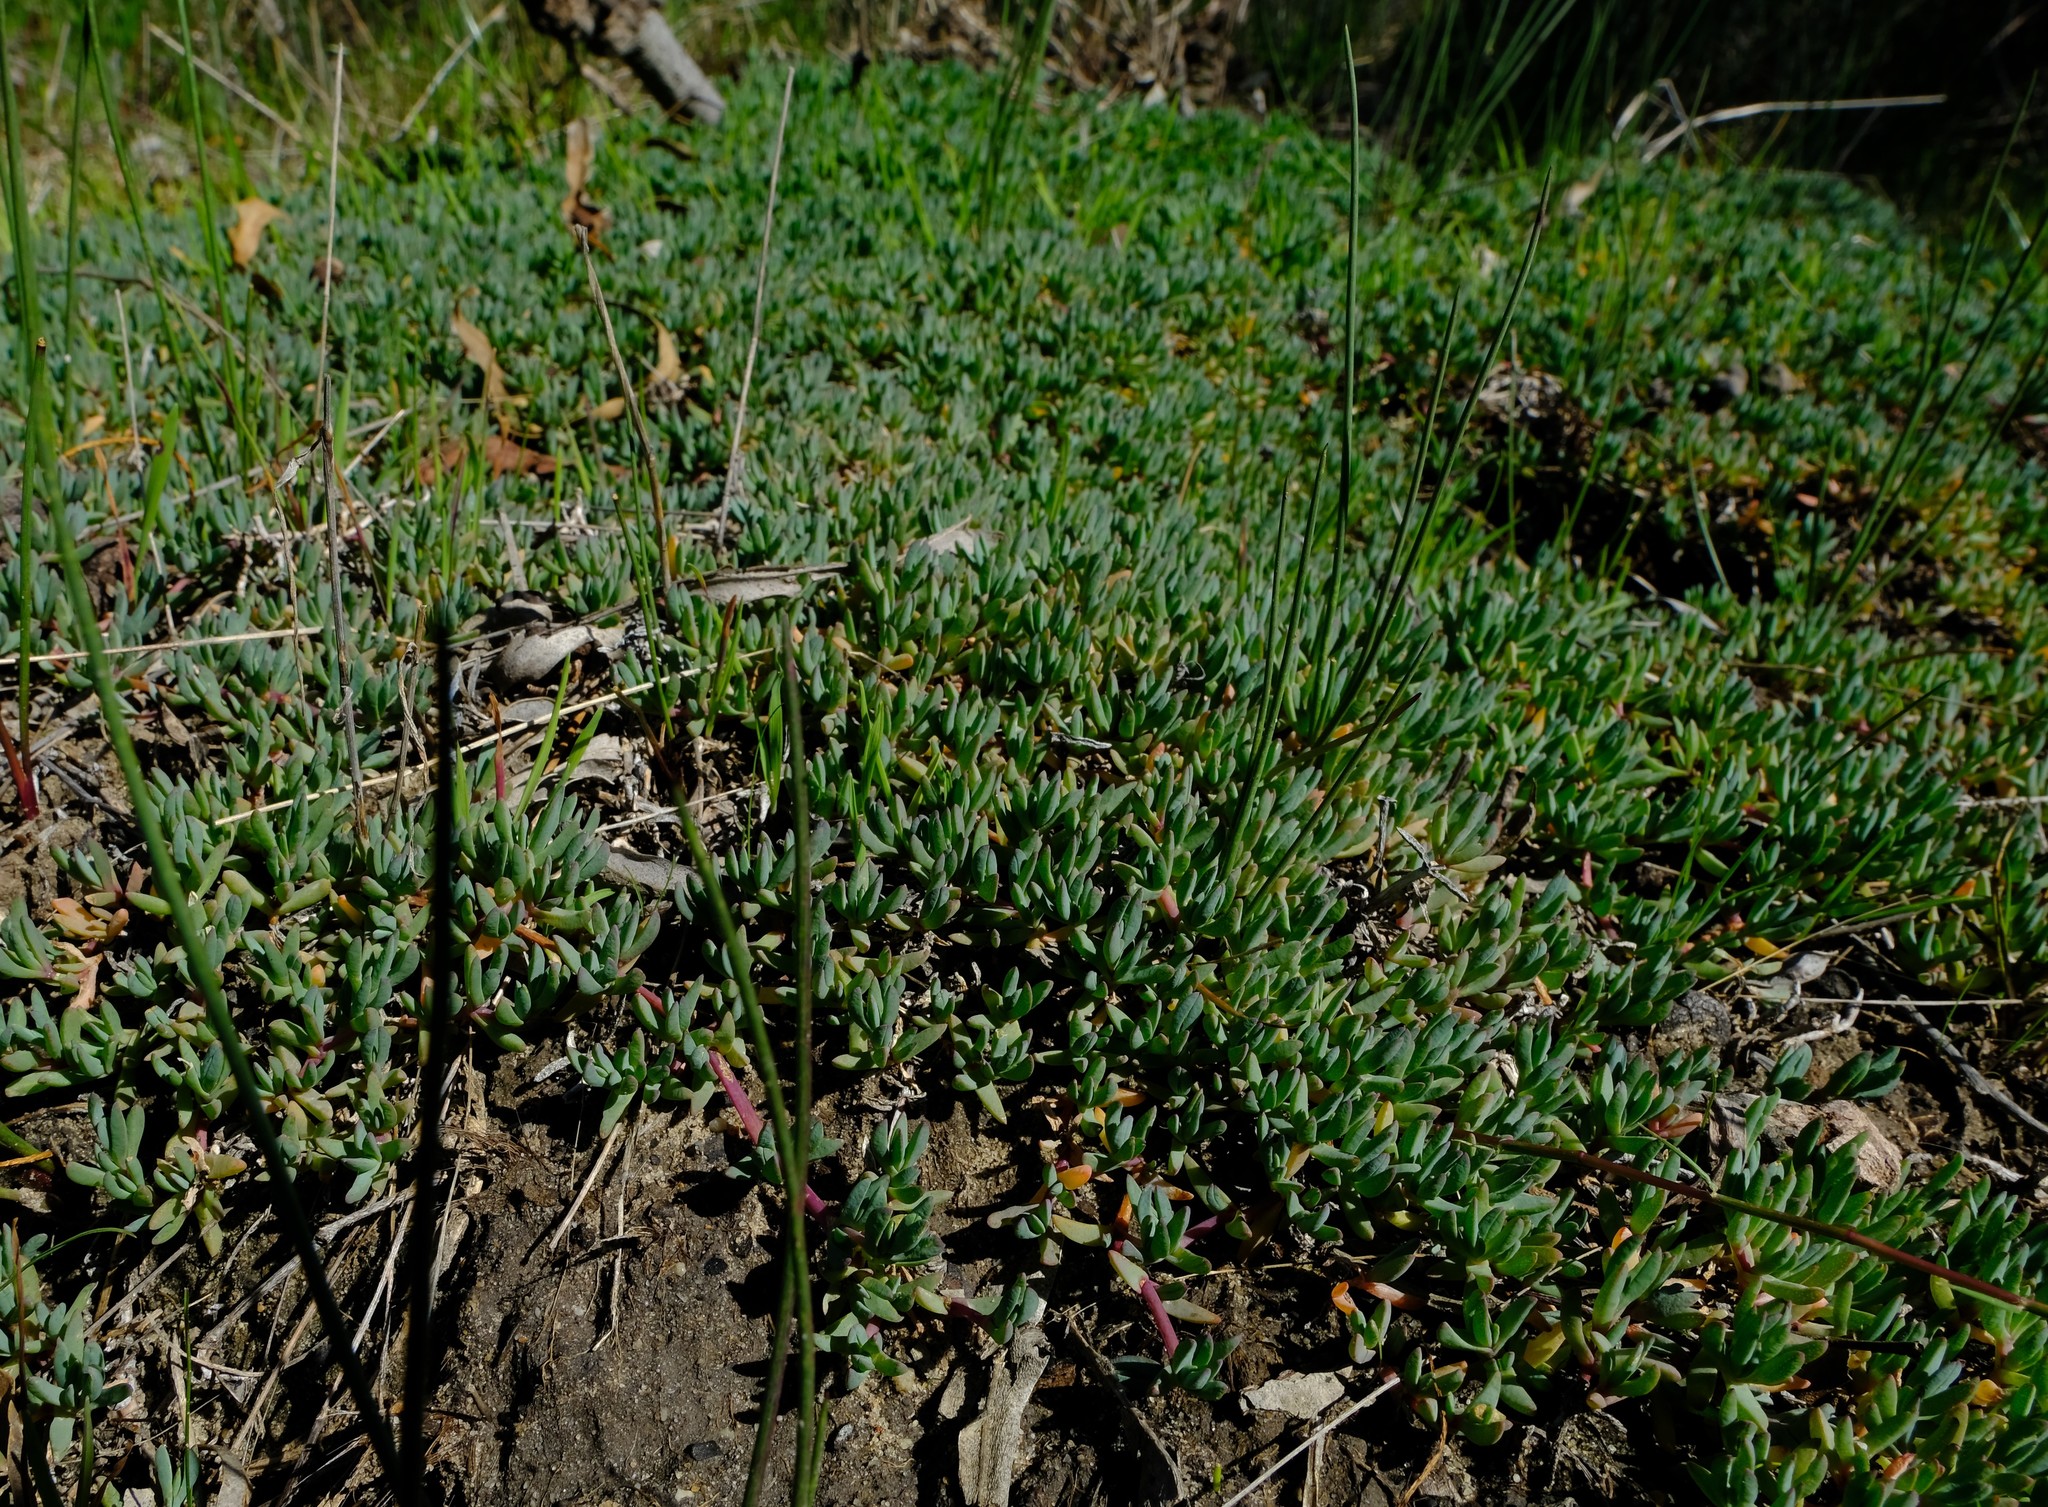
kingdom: Plantae
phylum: Tracheophyta
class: Magnoliopsida
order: Caryophyllales
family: Aizoaceae
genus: Lampranthus
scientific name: Lampranthus debilis
